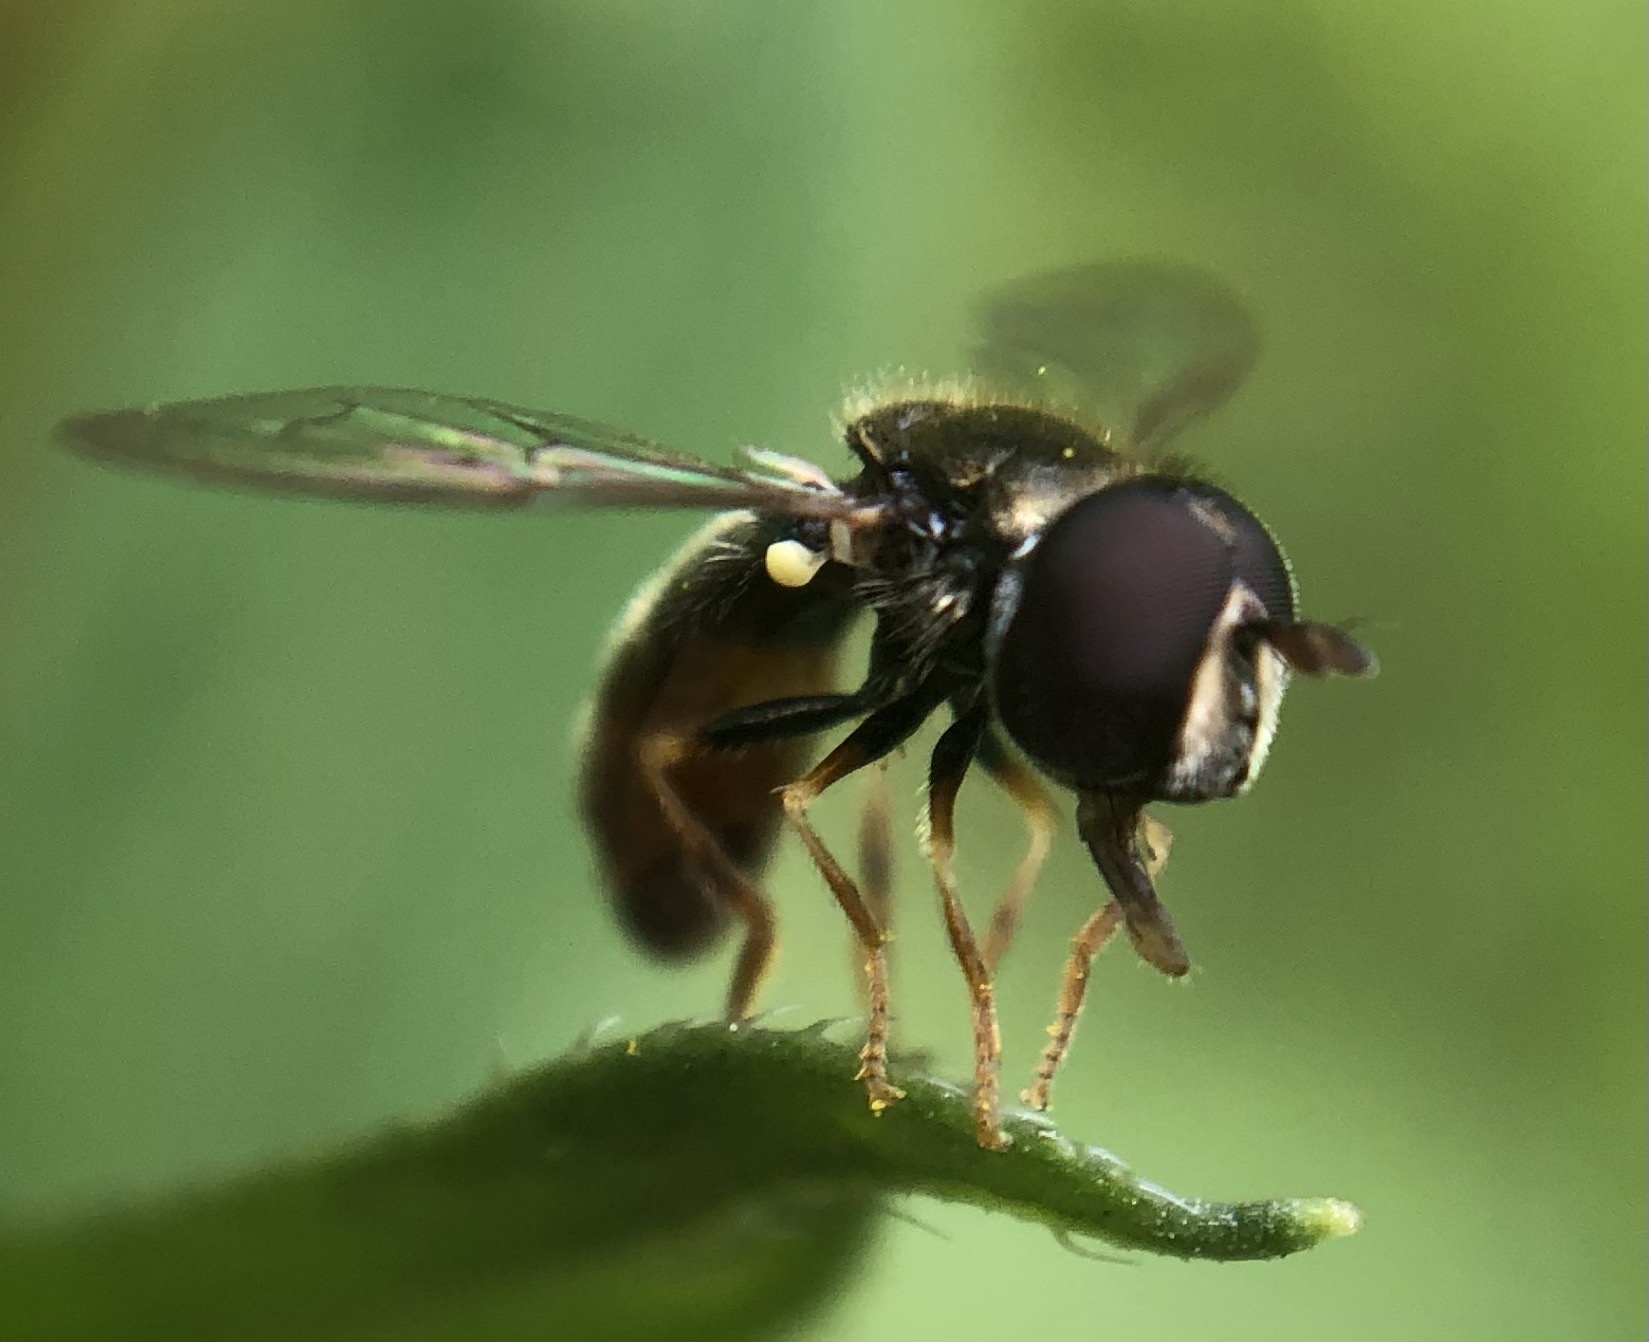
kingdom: Animalia
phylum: Arthropoda
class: Insecta
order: Diptera
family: Syrphidae
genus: Paragus
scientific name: Paragus haemorrhous
